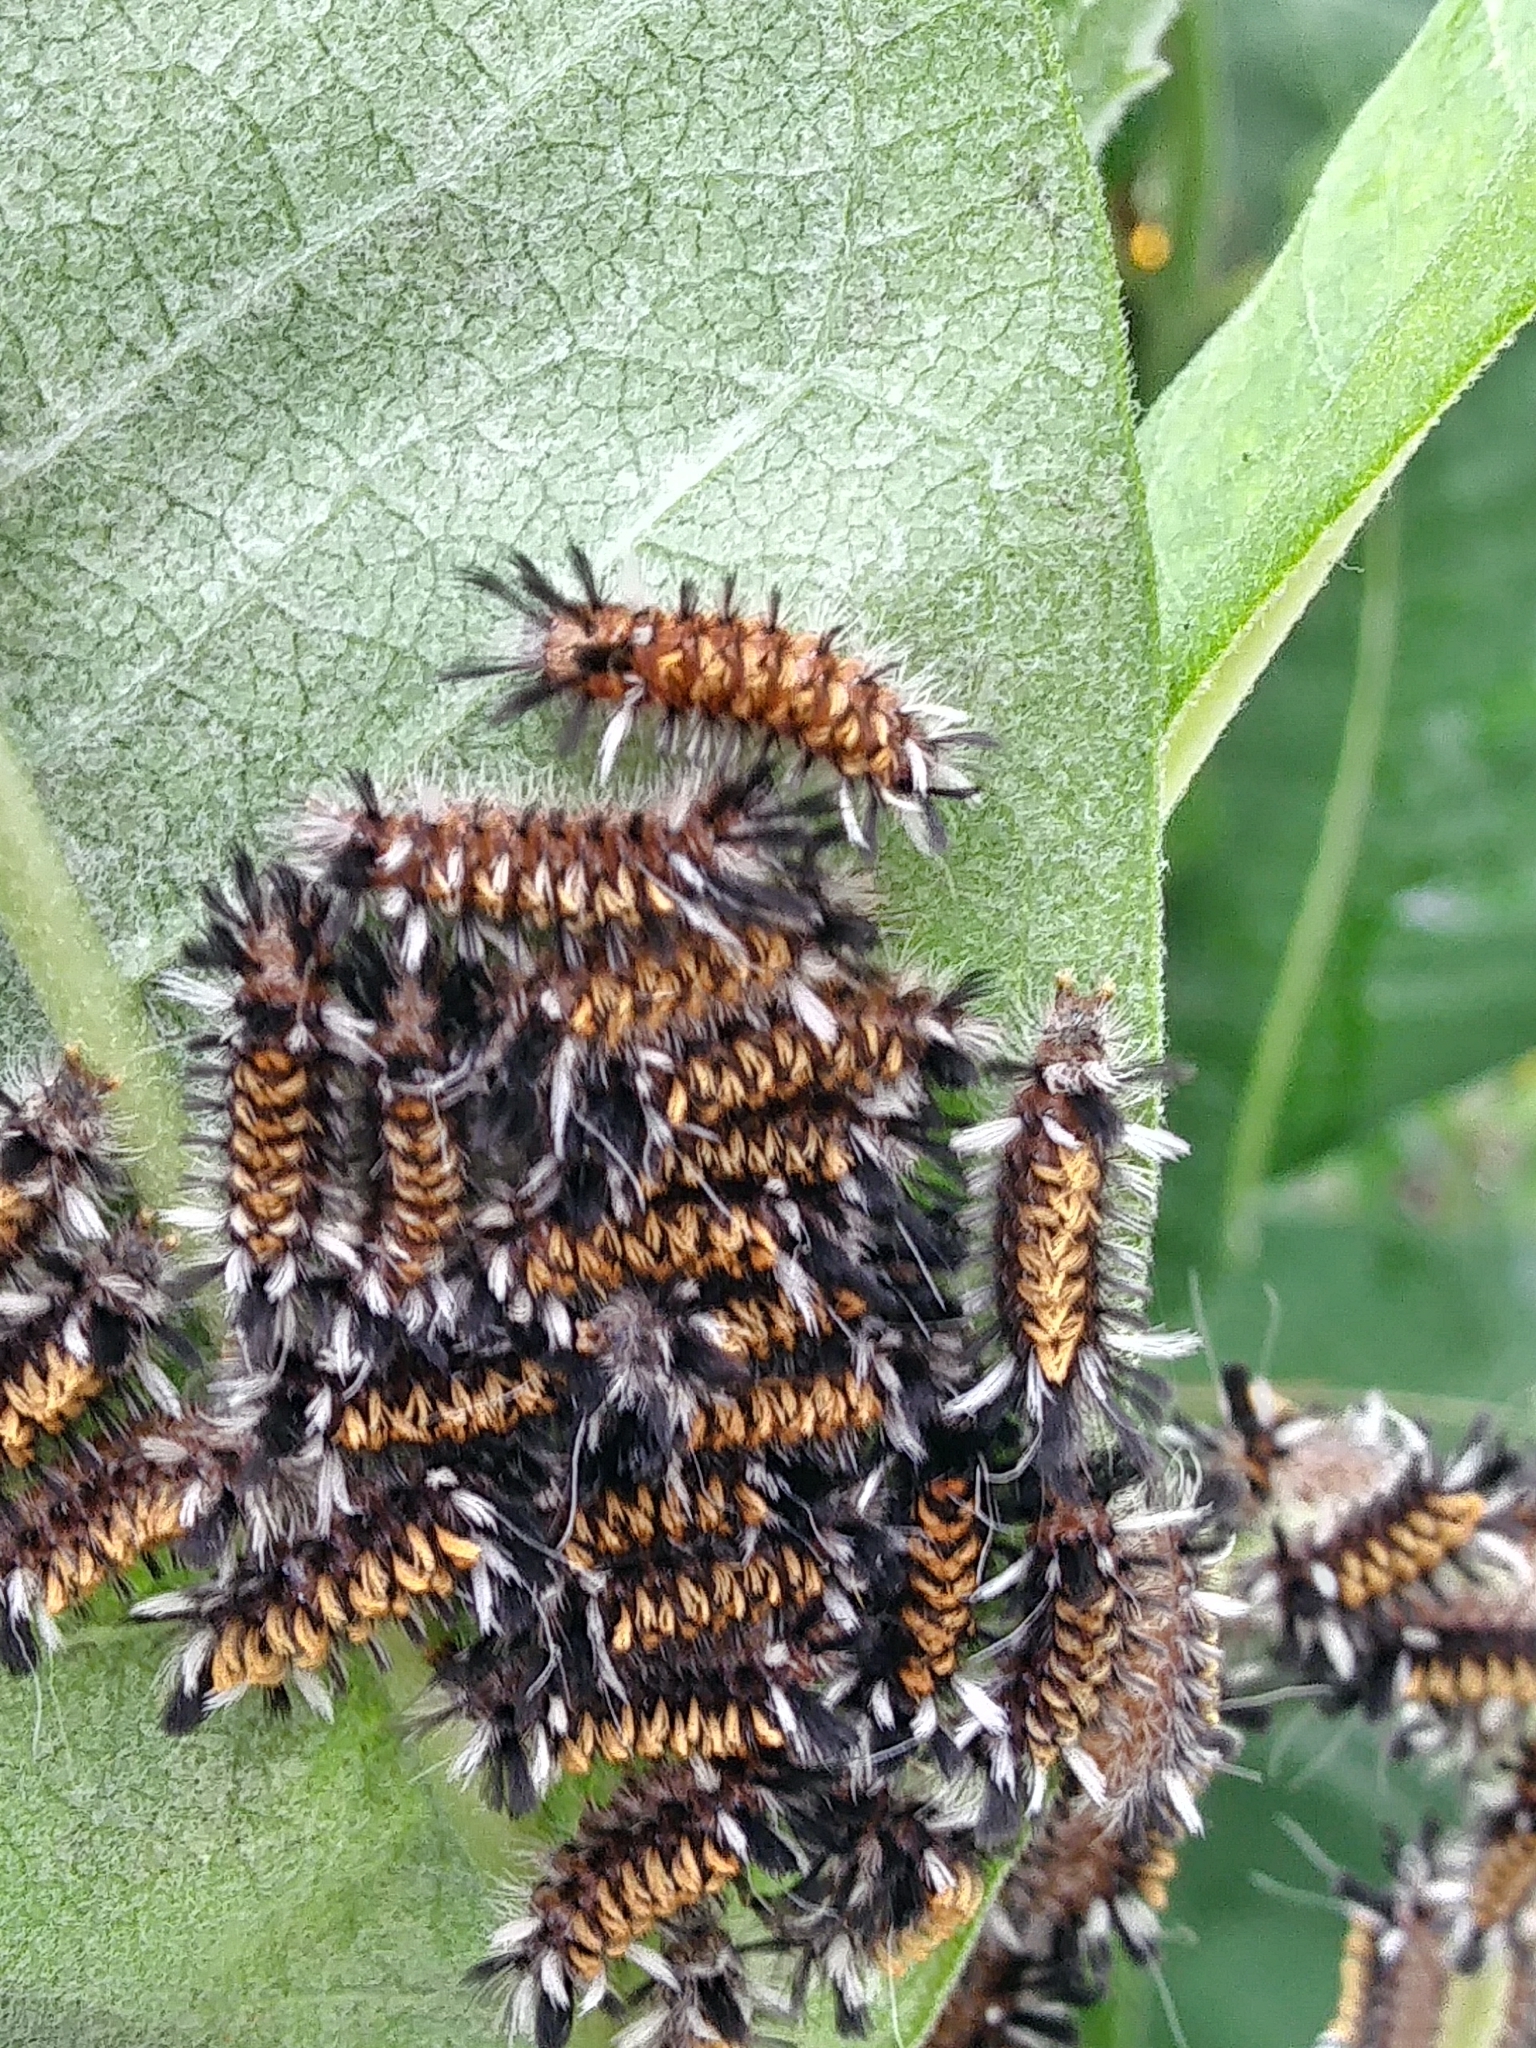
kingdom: Animalia
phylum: Arthropoda
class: Insecta
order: Lepidoptera
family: Erebidae
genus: Euchaetes
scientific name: Euchaetes egle
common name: Milkweed tussock moth
